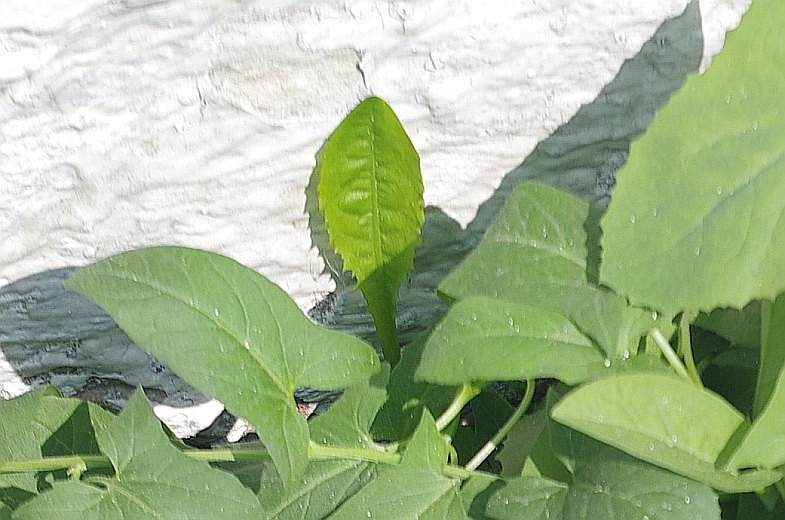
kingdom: Plantae
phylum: Tracheophyta
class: Magnoliopsida
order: Asterales
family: Asteraceae
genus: Taraxacum
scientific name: Taraxacum officinale
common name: Common dandelion
